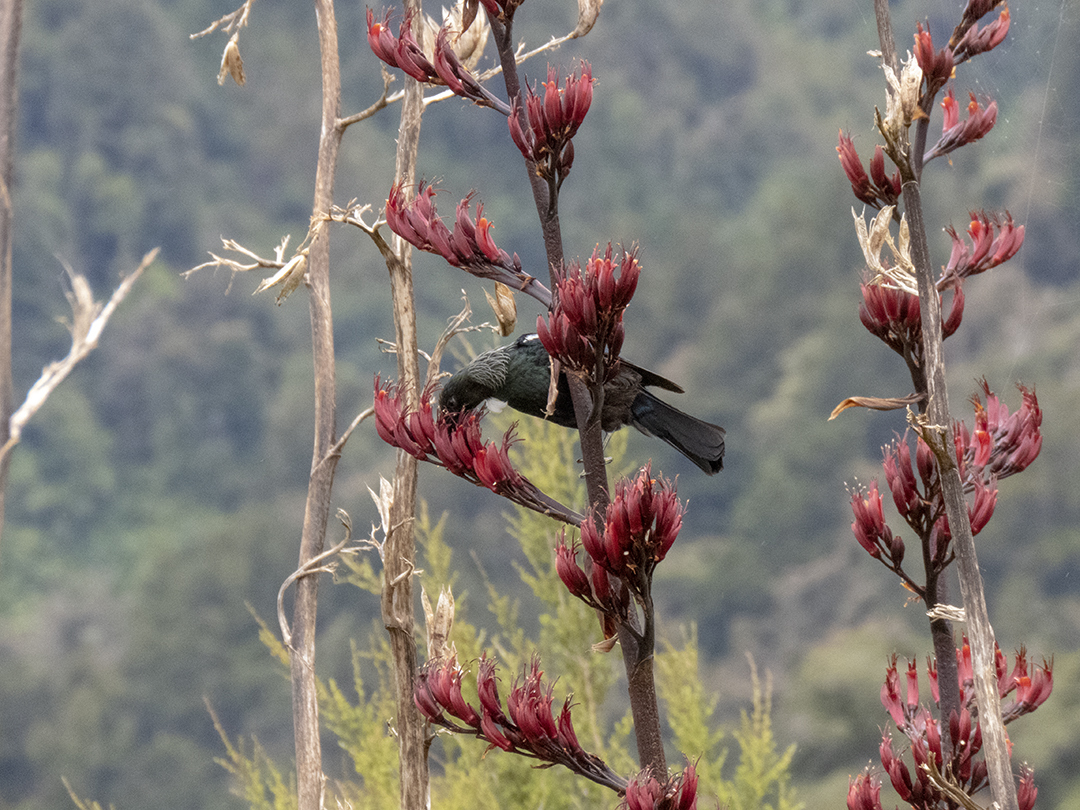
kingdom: Animalia
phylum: Chordata
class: Aves
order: Passeriformes
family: Meliphagidae
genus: Prosthemadera
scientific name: Prosthemadera novaeseelandiae
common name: Tui
